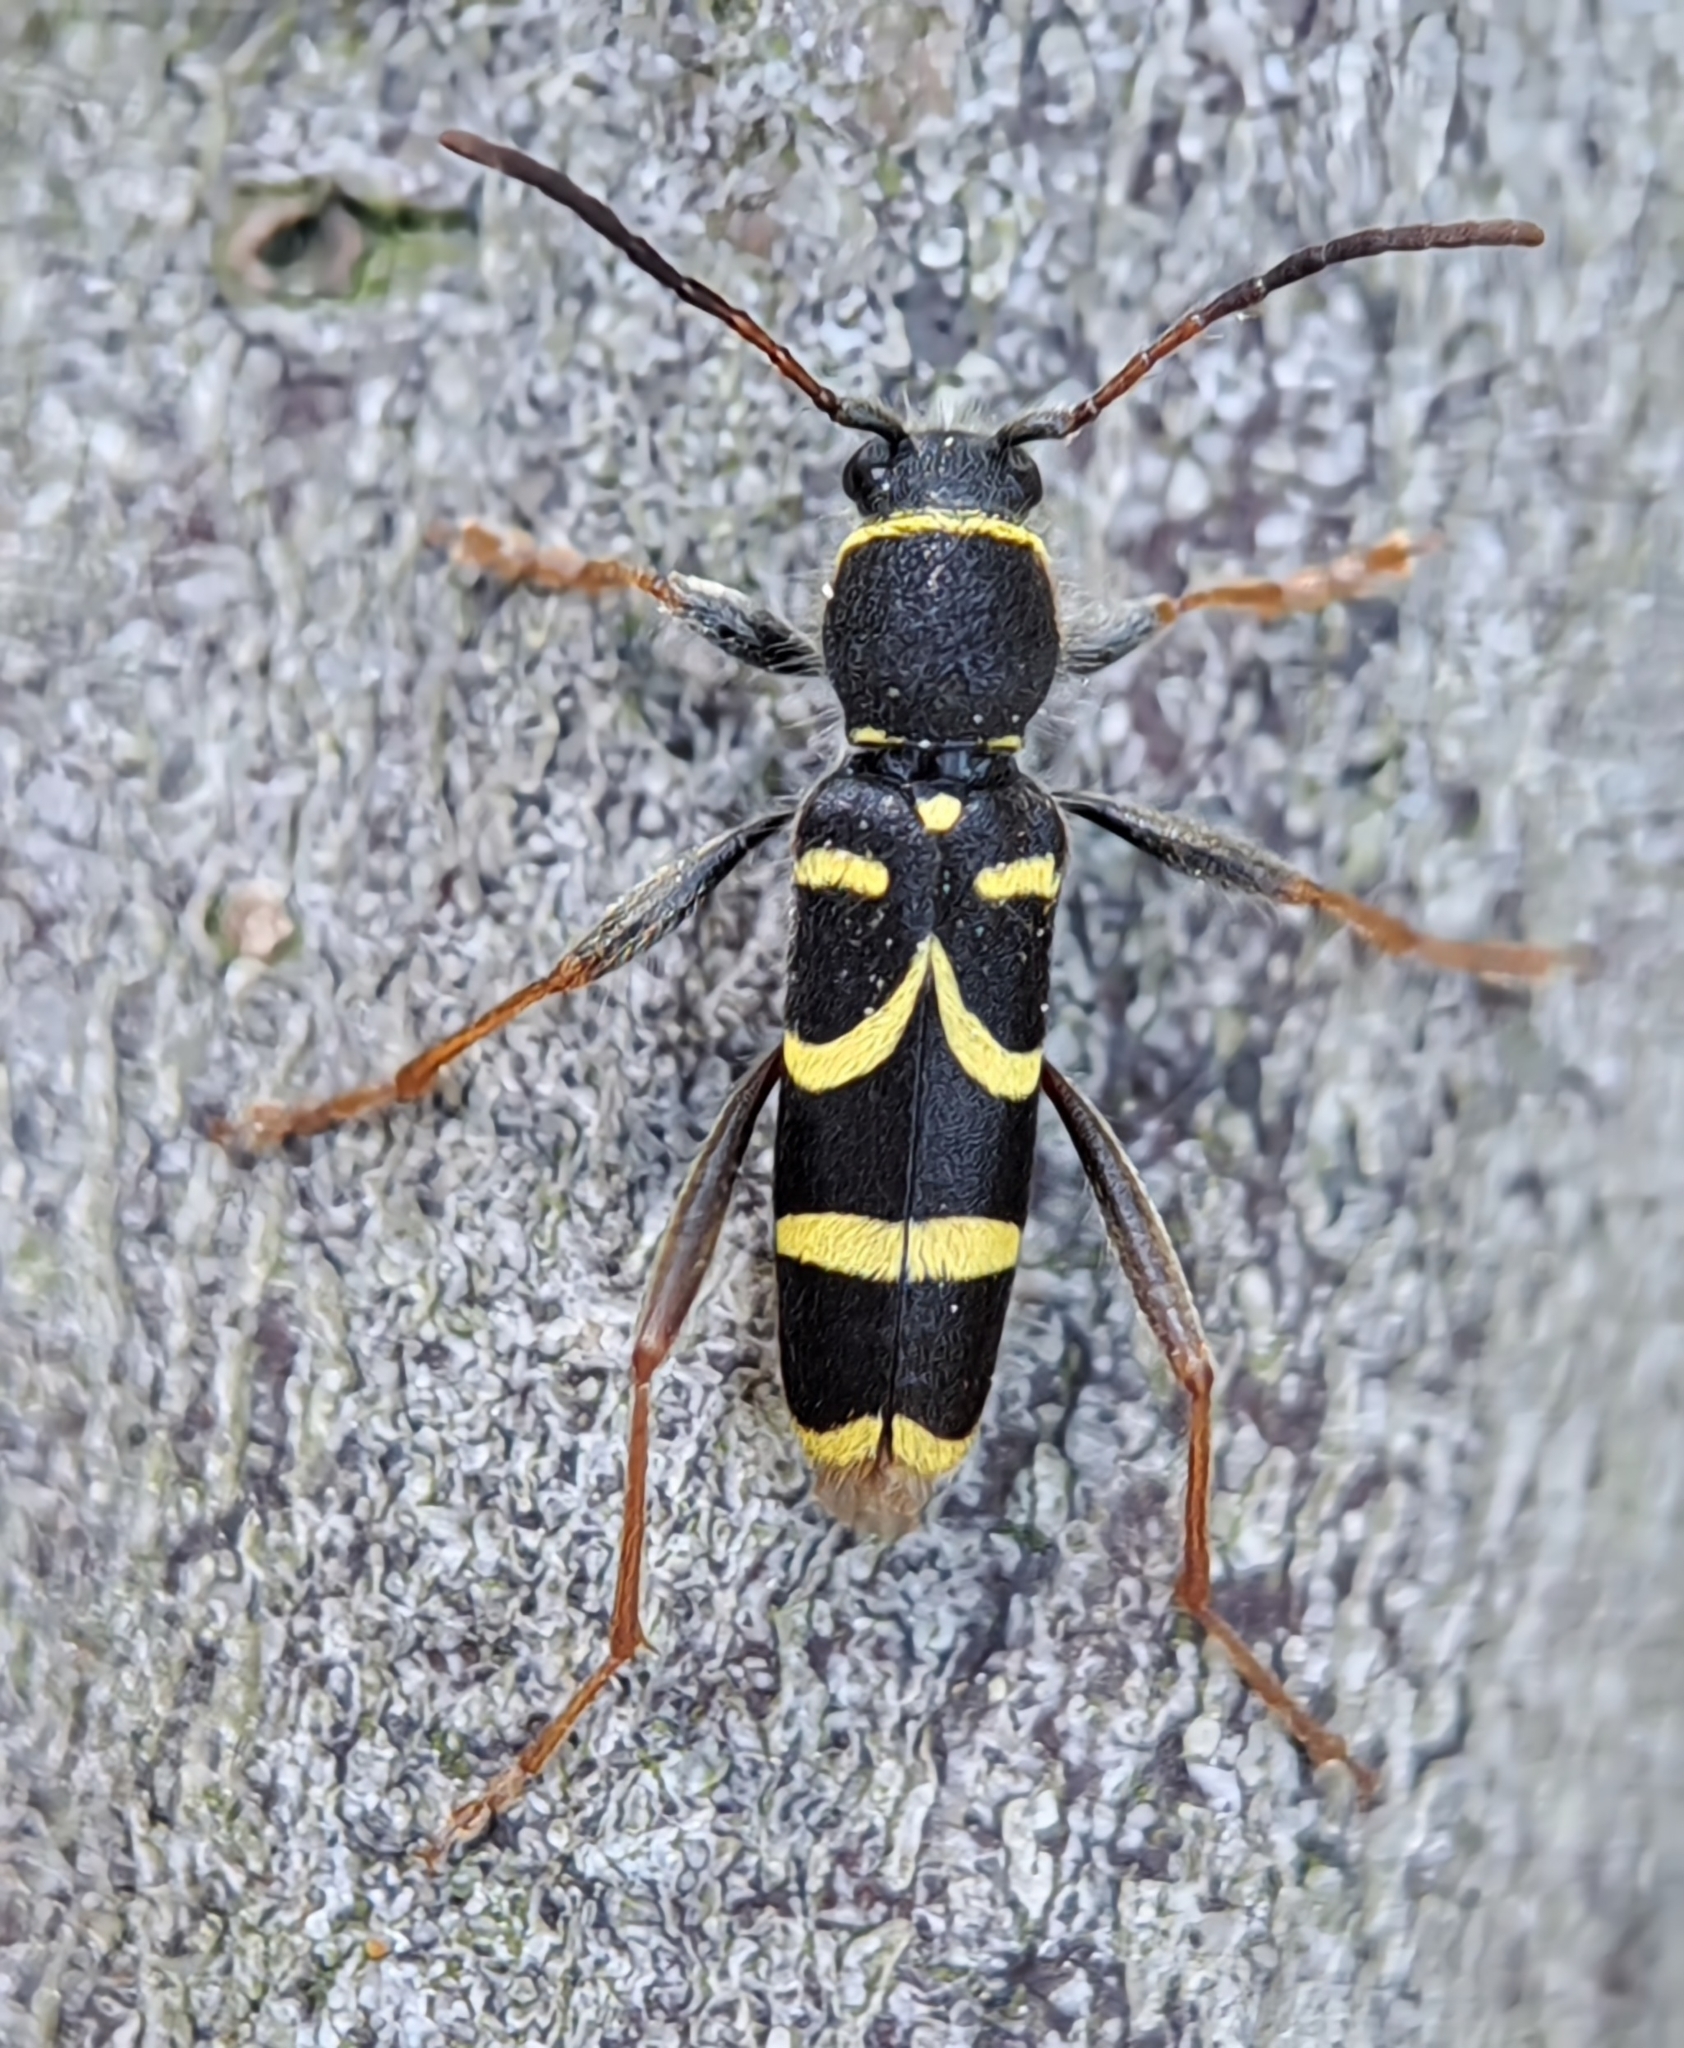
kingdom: Animalia
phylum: Arthropoda
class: Insecta
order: Coleoptera
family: Cerambycidae
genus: Clytus
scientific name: Clytus arietis
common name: Wasp beetle
